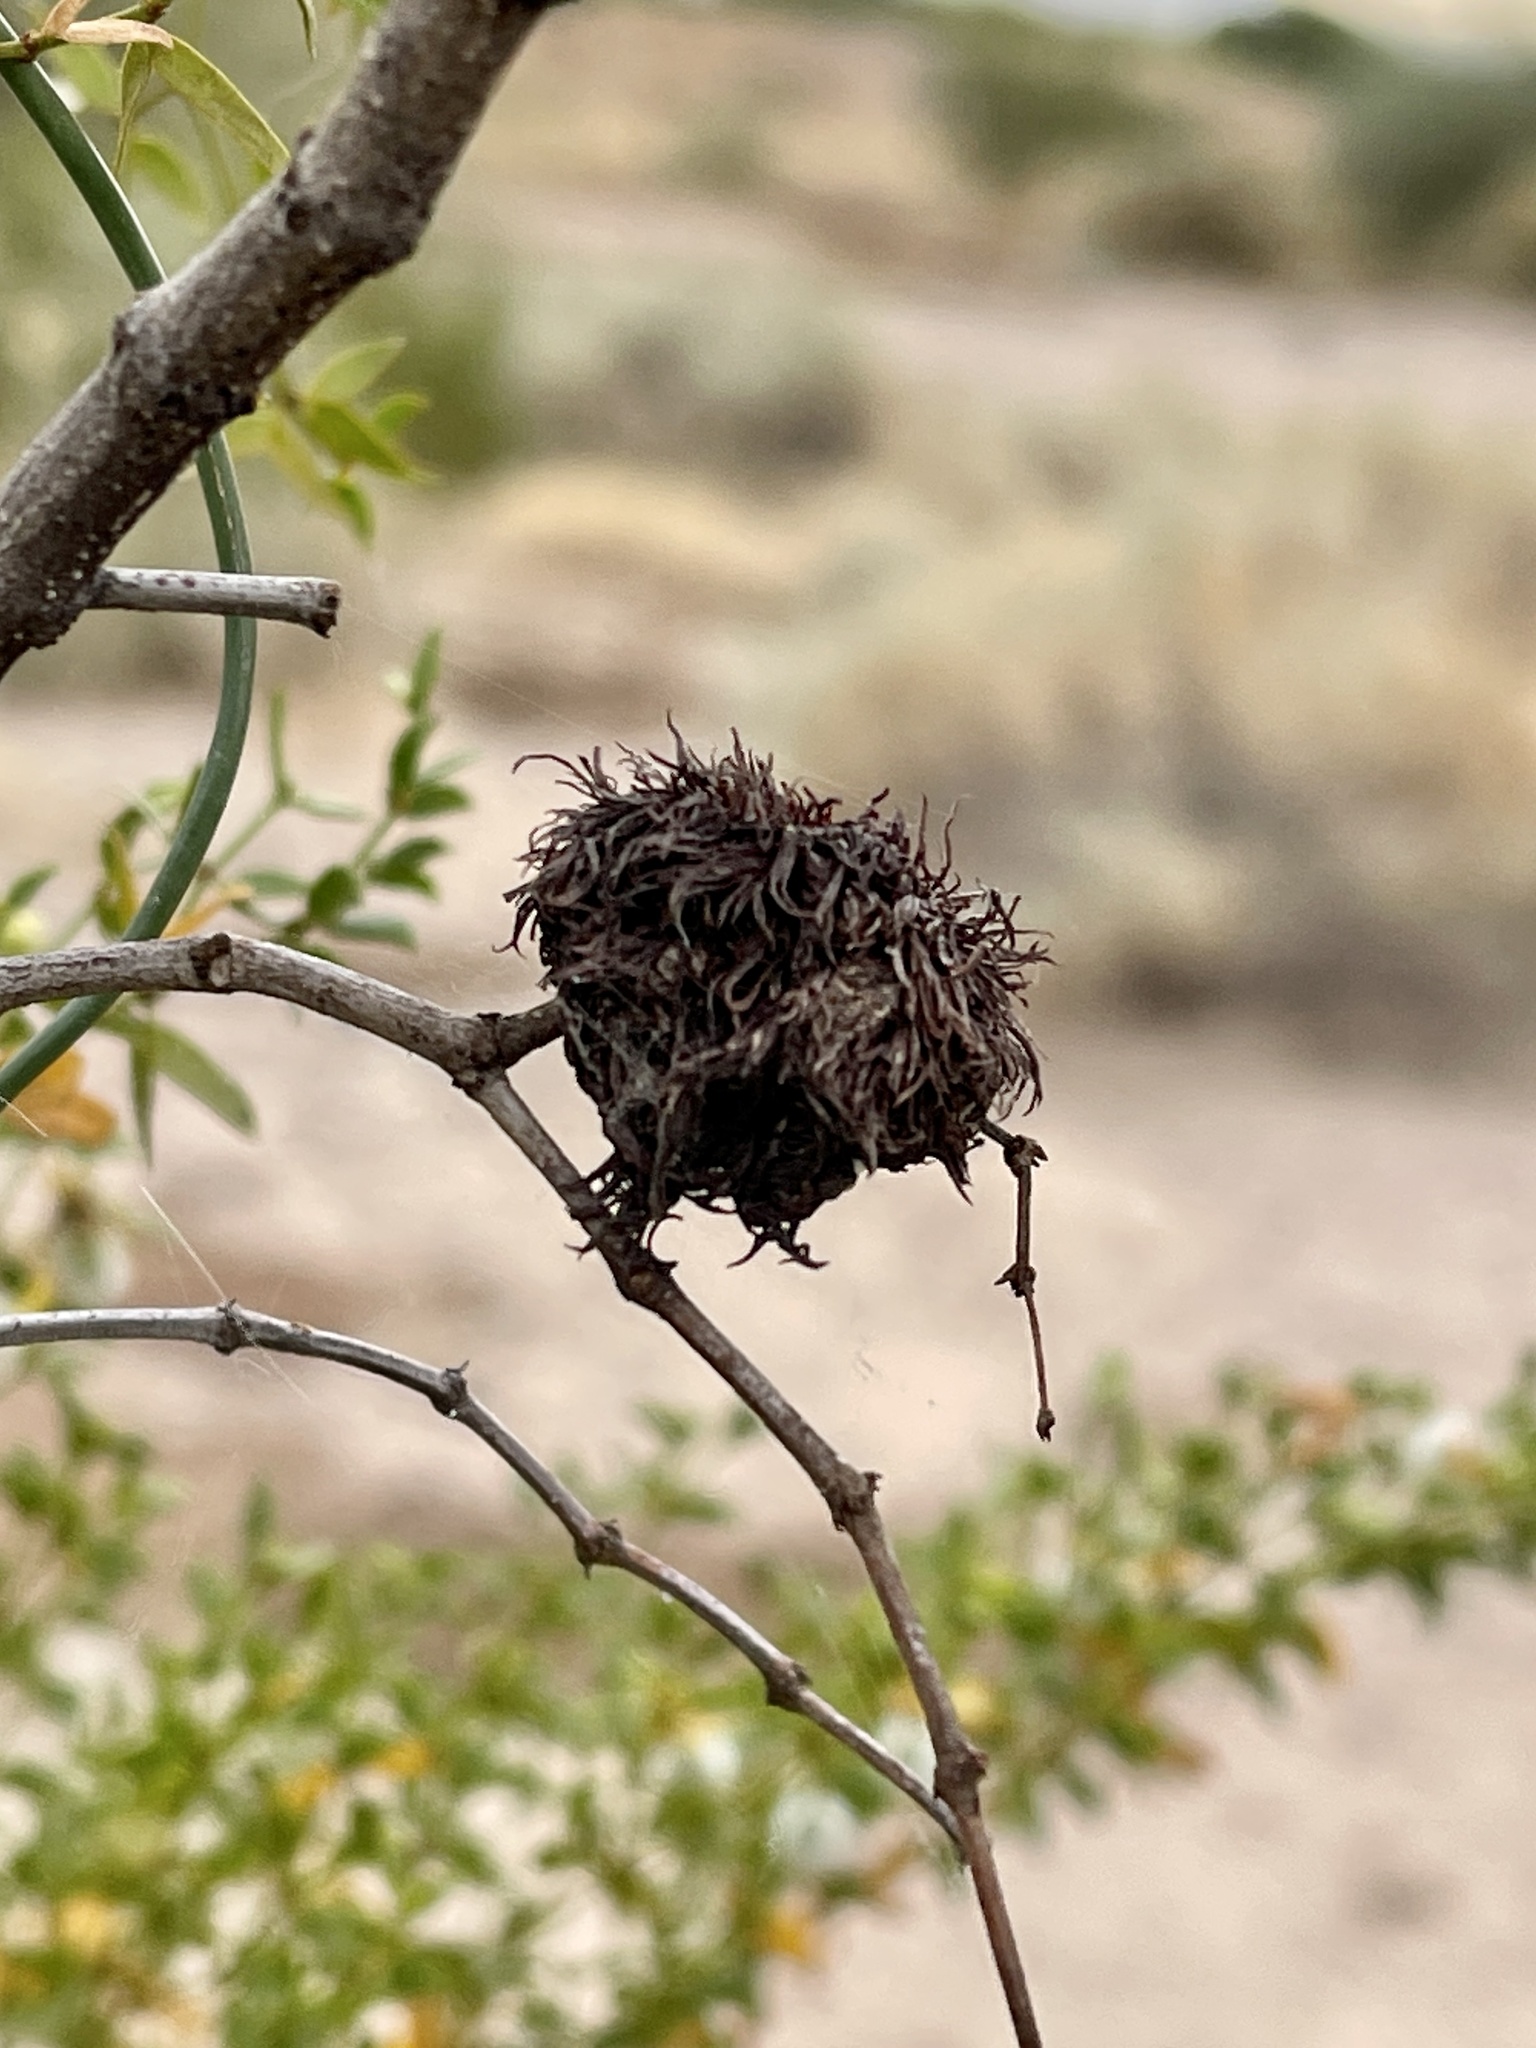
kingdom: Animalia
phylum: Arthropoda
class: Insecta
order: Diptera
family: Cecidomyiidae
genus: Asphondylia
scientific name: Asphondylia auripila
